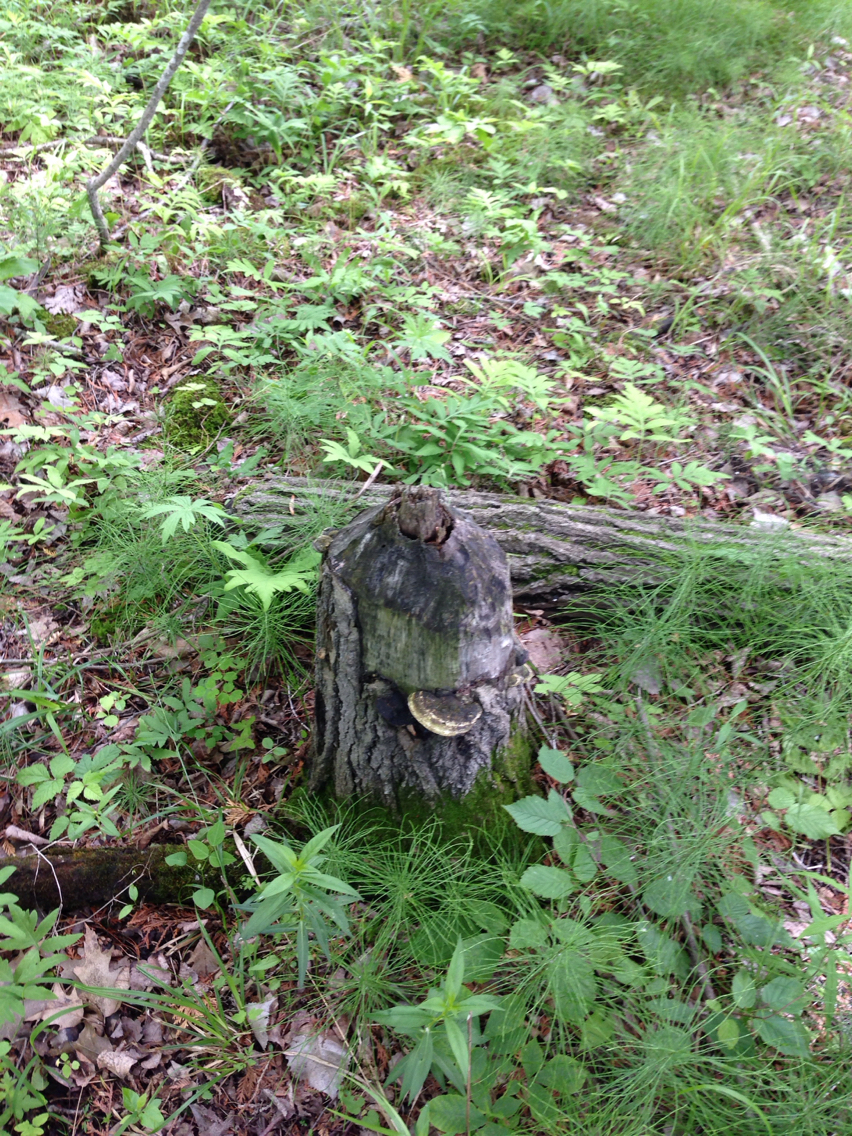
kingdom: Animalia
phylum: Chordata
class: Mammalia
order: Rodentia
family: Castoridae
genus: Castor
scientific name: Castor canadensis
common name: American beaver
